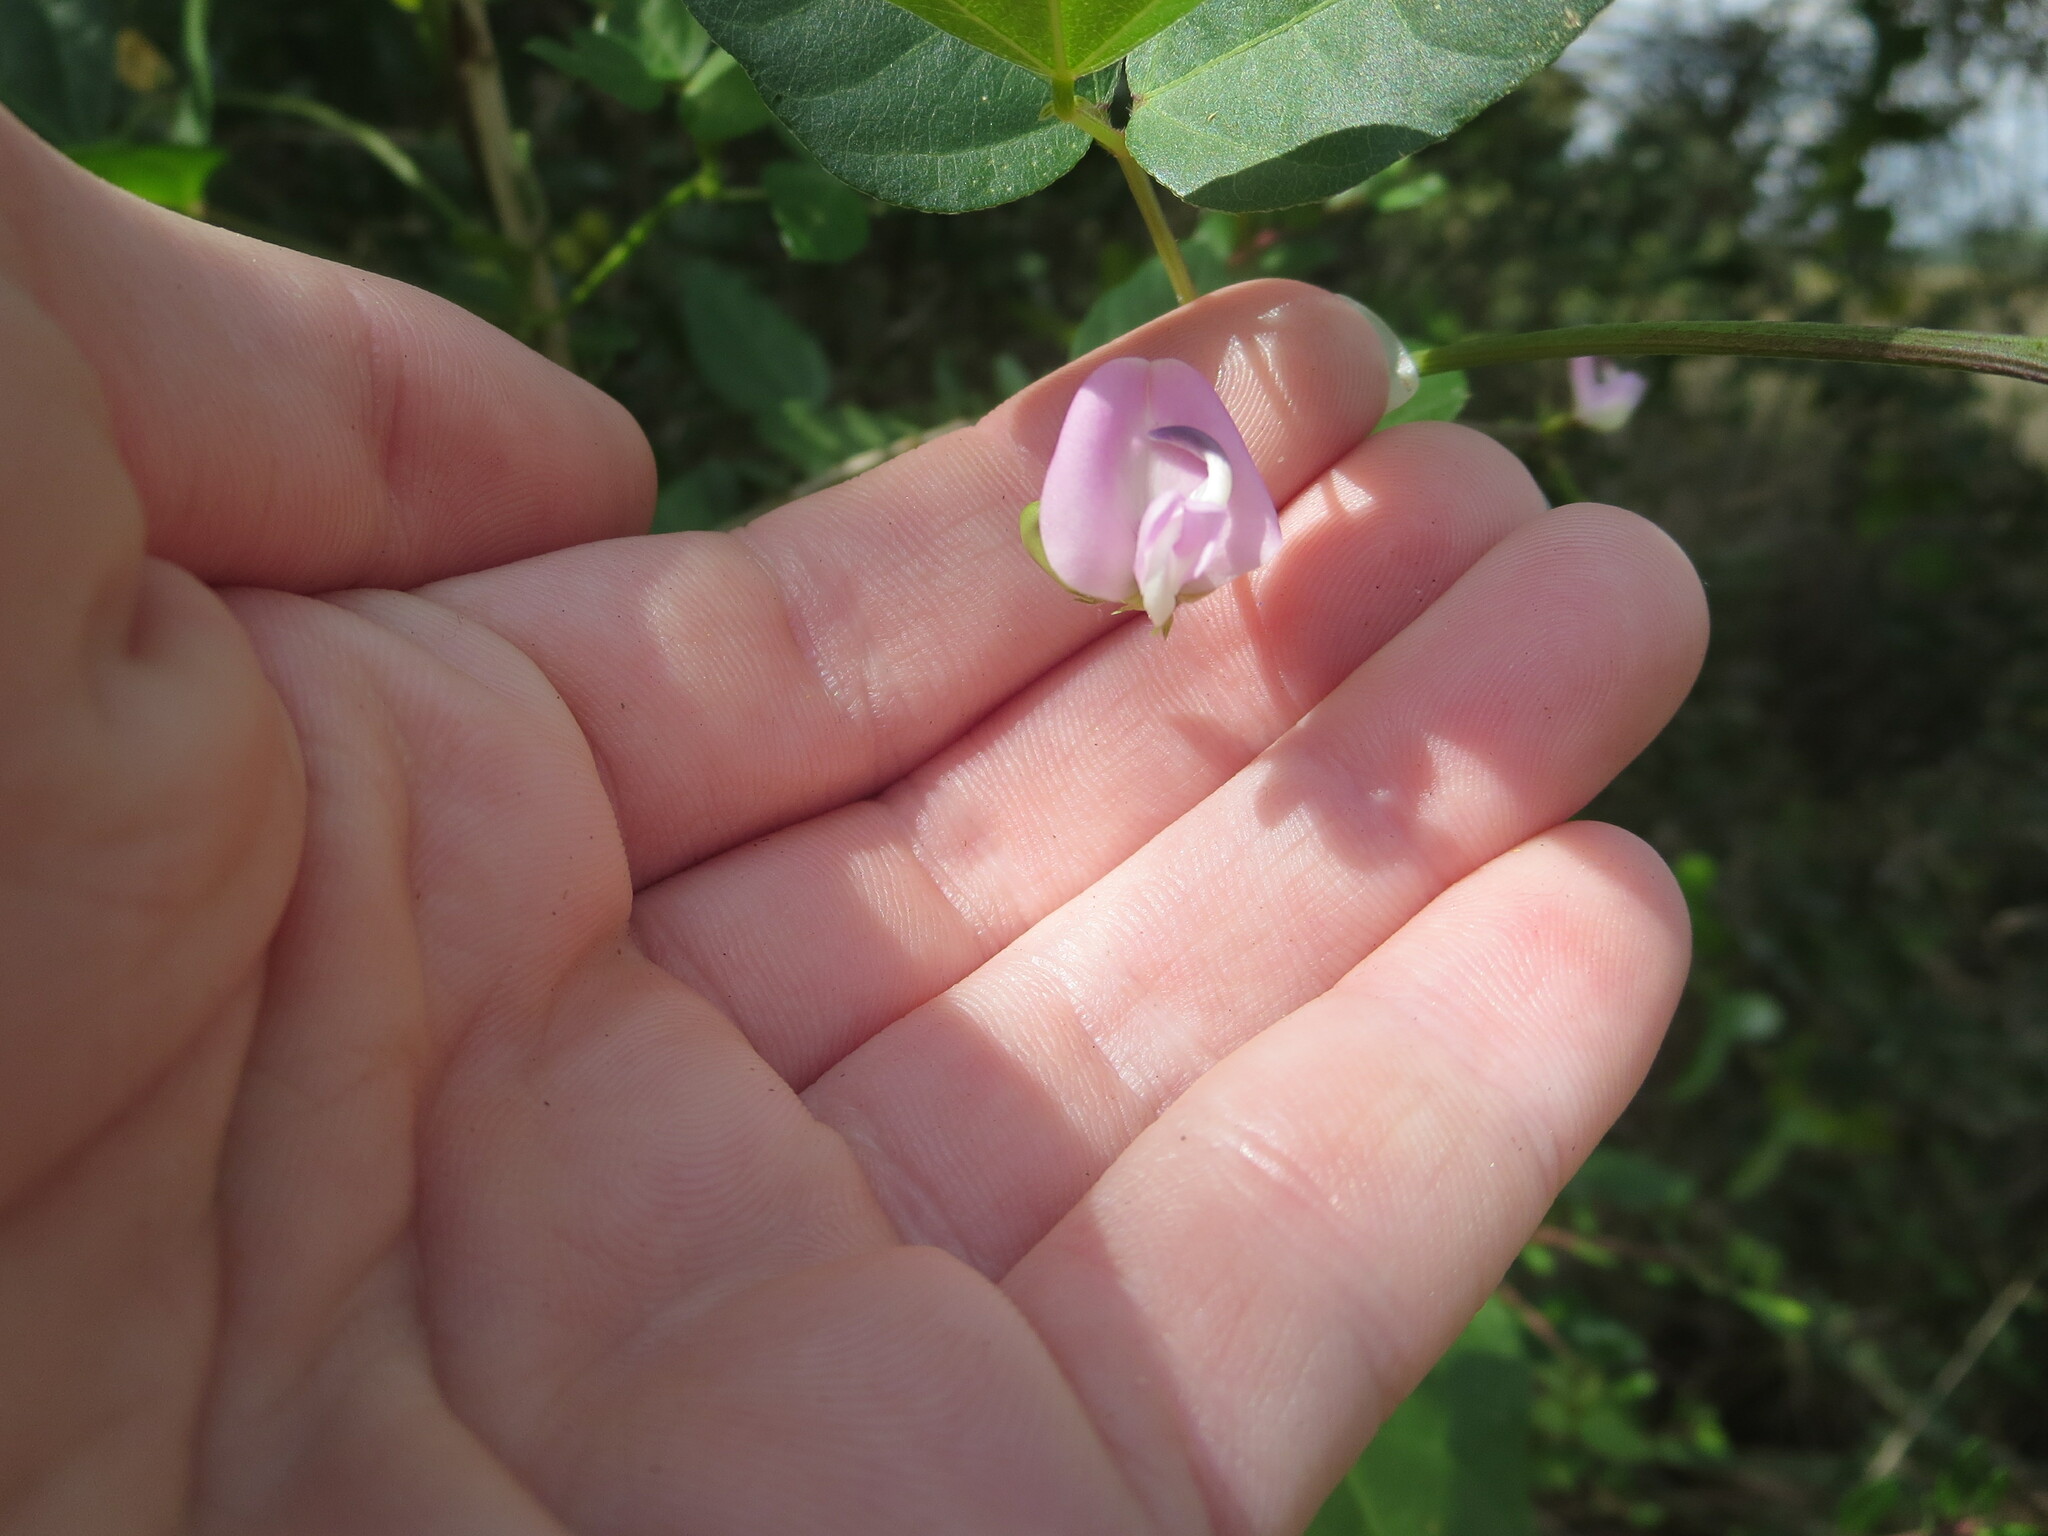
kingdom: Plantae
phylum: Tracheophyta
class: Magnoliopsida
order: Fabales
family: Fabaceae
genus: Strophostyles
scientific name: Strophostyles helvola
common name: Trailing wild bean
